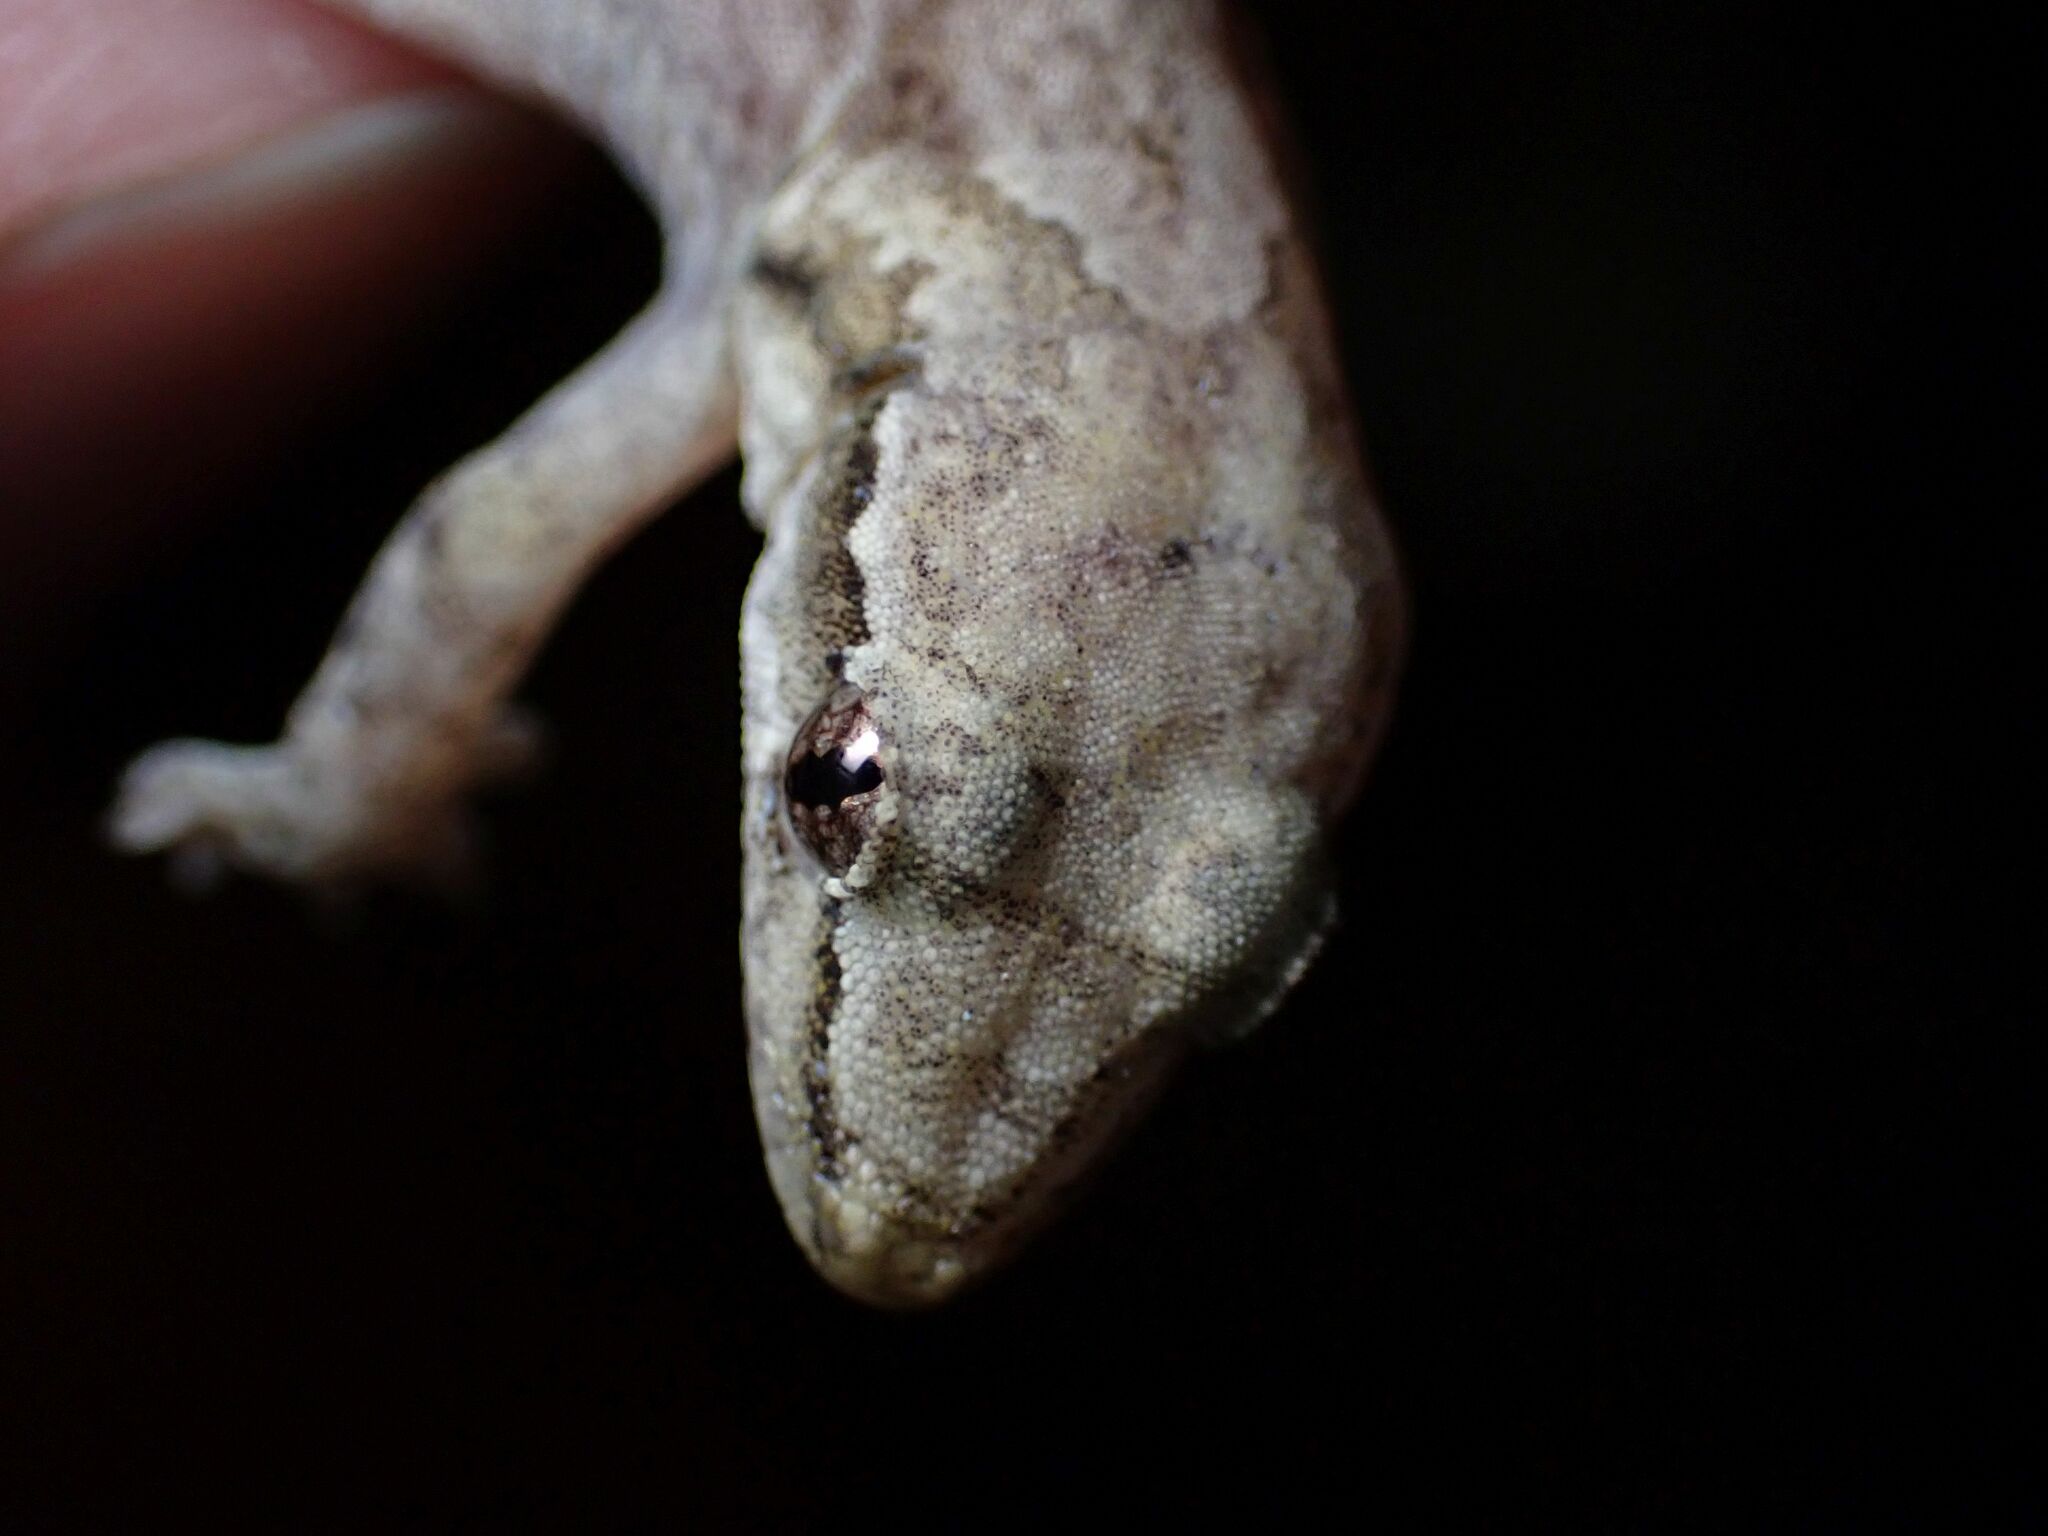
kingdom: Animalia
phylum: Chordata
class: Squamata
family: Gekkonidae
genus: Lepidodactylus
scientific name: Lepidodactylus lugubris
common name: Mourning gecko
